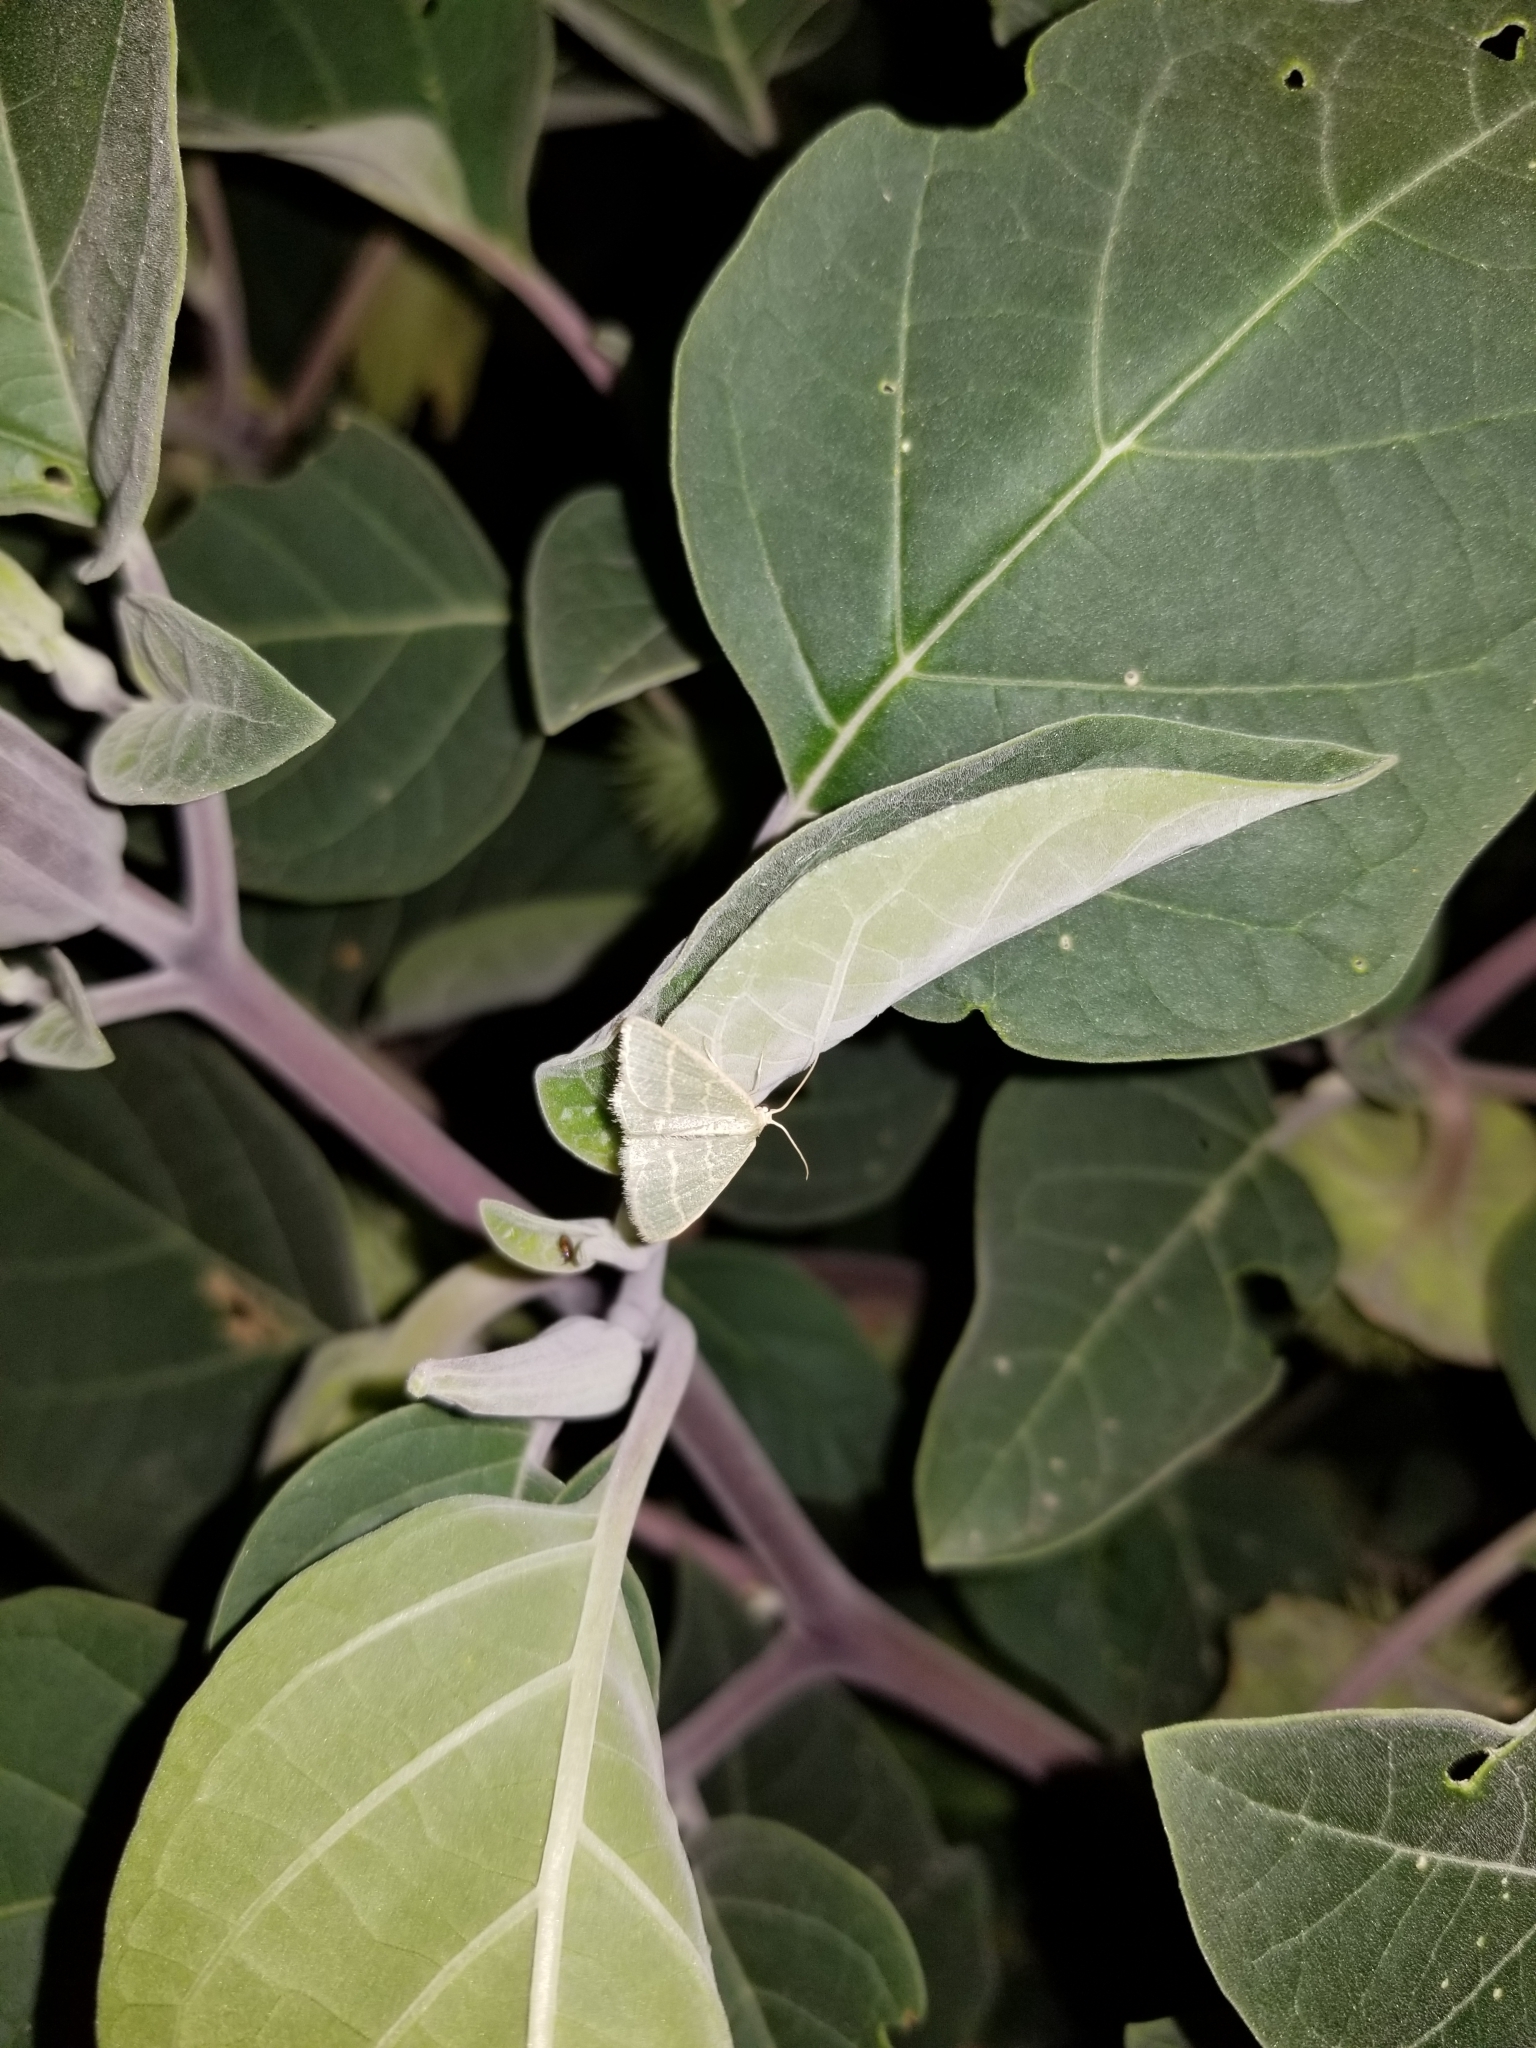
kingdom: Animalia
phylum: Arthropoda
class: Insecta
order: Lepidoptera
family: Geometridae
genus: Chlorochlamys
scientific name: Chlorochlamys chloroleucaria
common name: Blackberry looper
